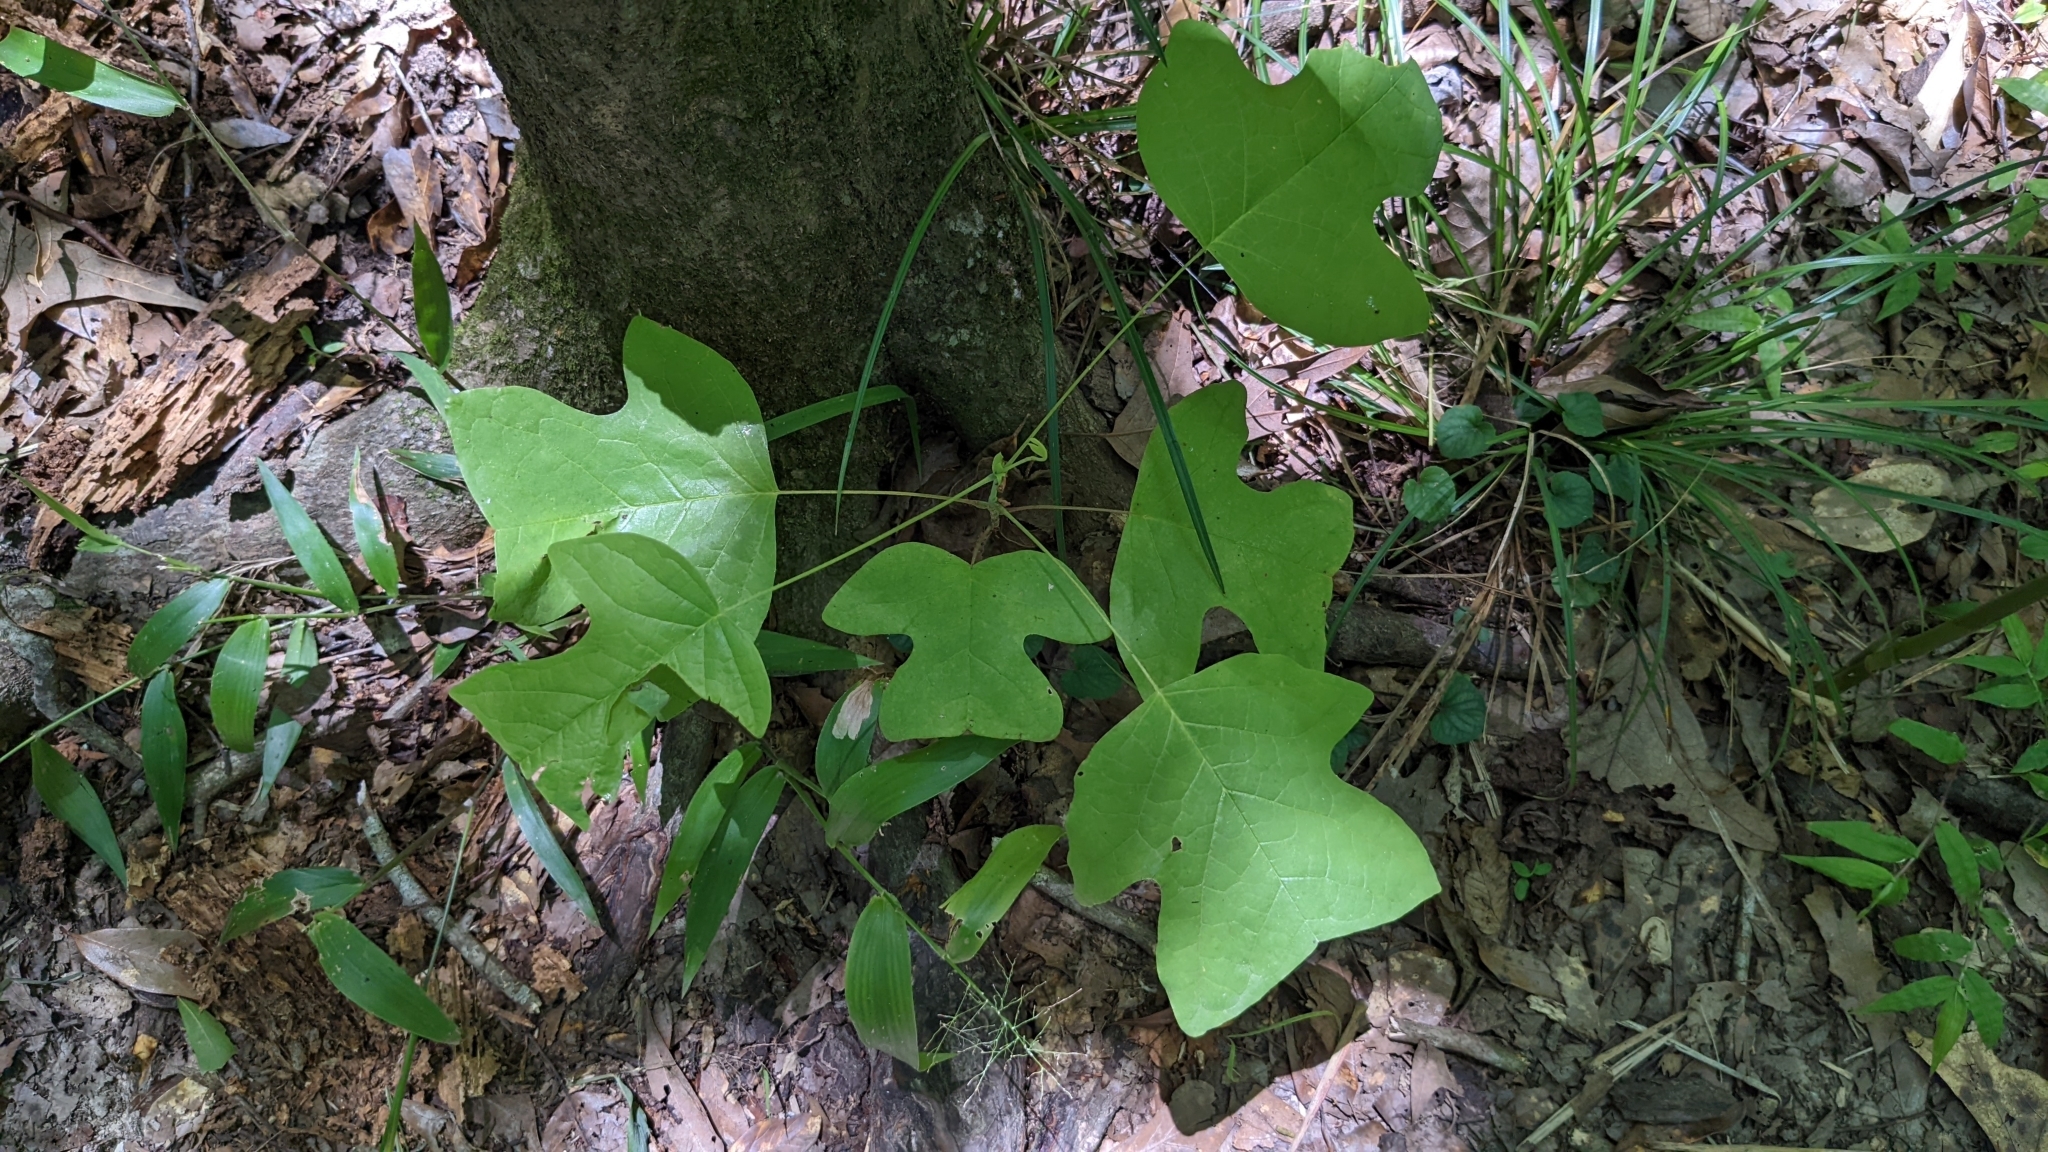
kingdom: Plantae
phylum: Tracheophyta
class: Magnoliopsida
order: Magnoliales
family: Magnoliaceae
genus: Liriodendron
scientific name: Liriodendron tulipifera
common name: Tulip tree
